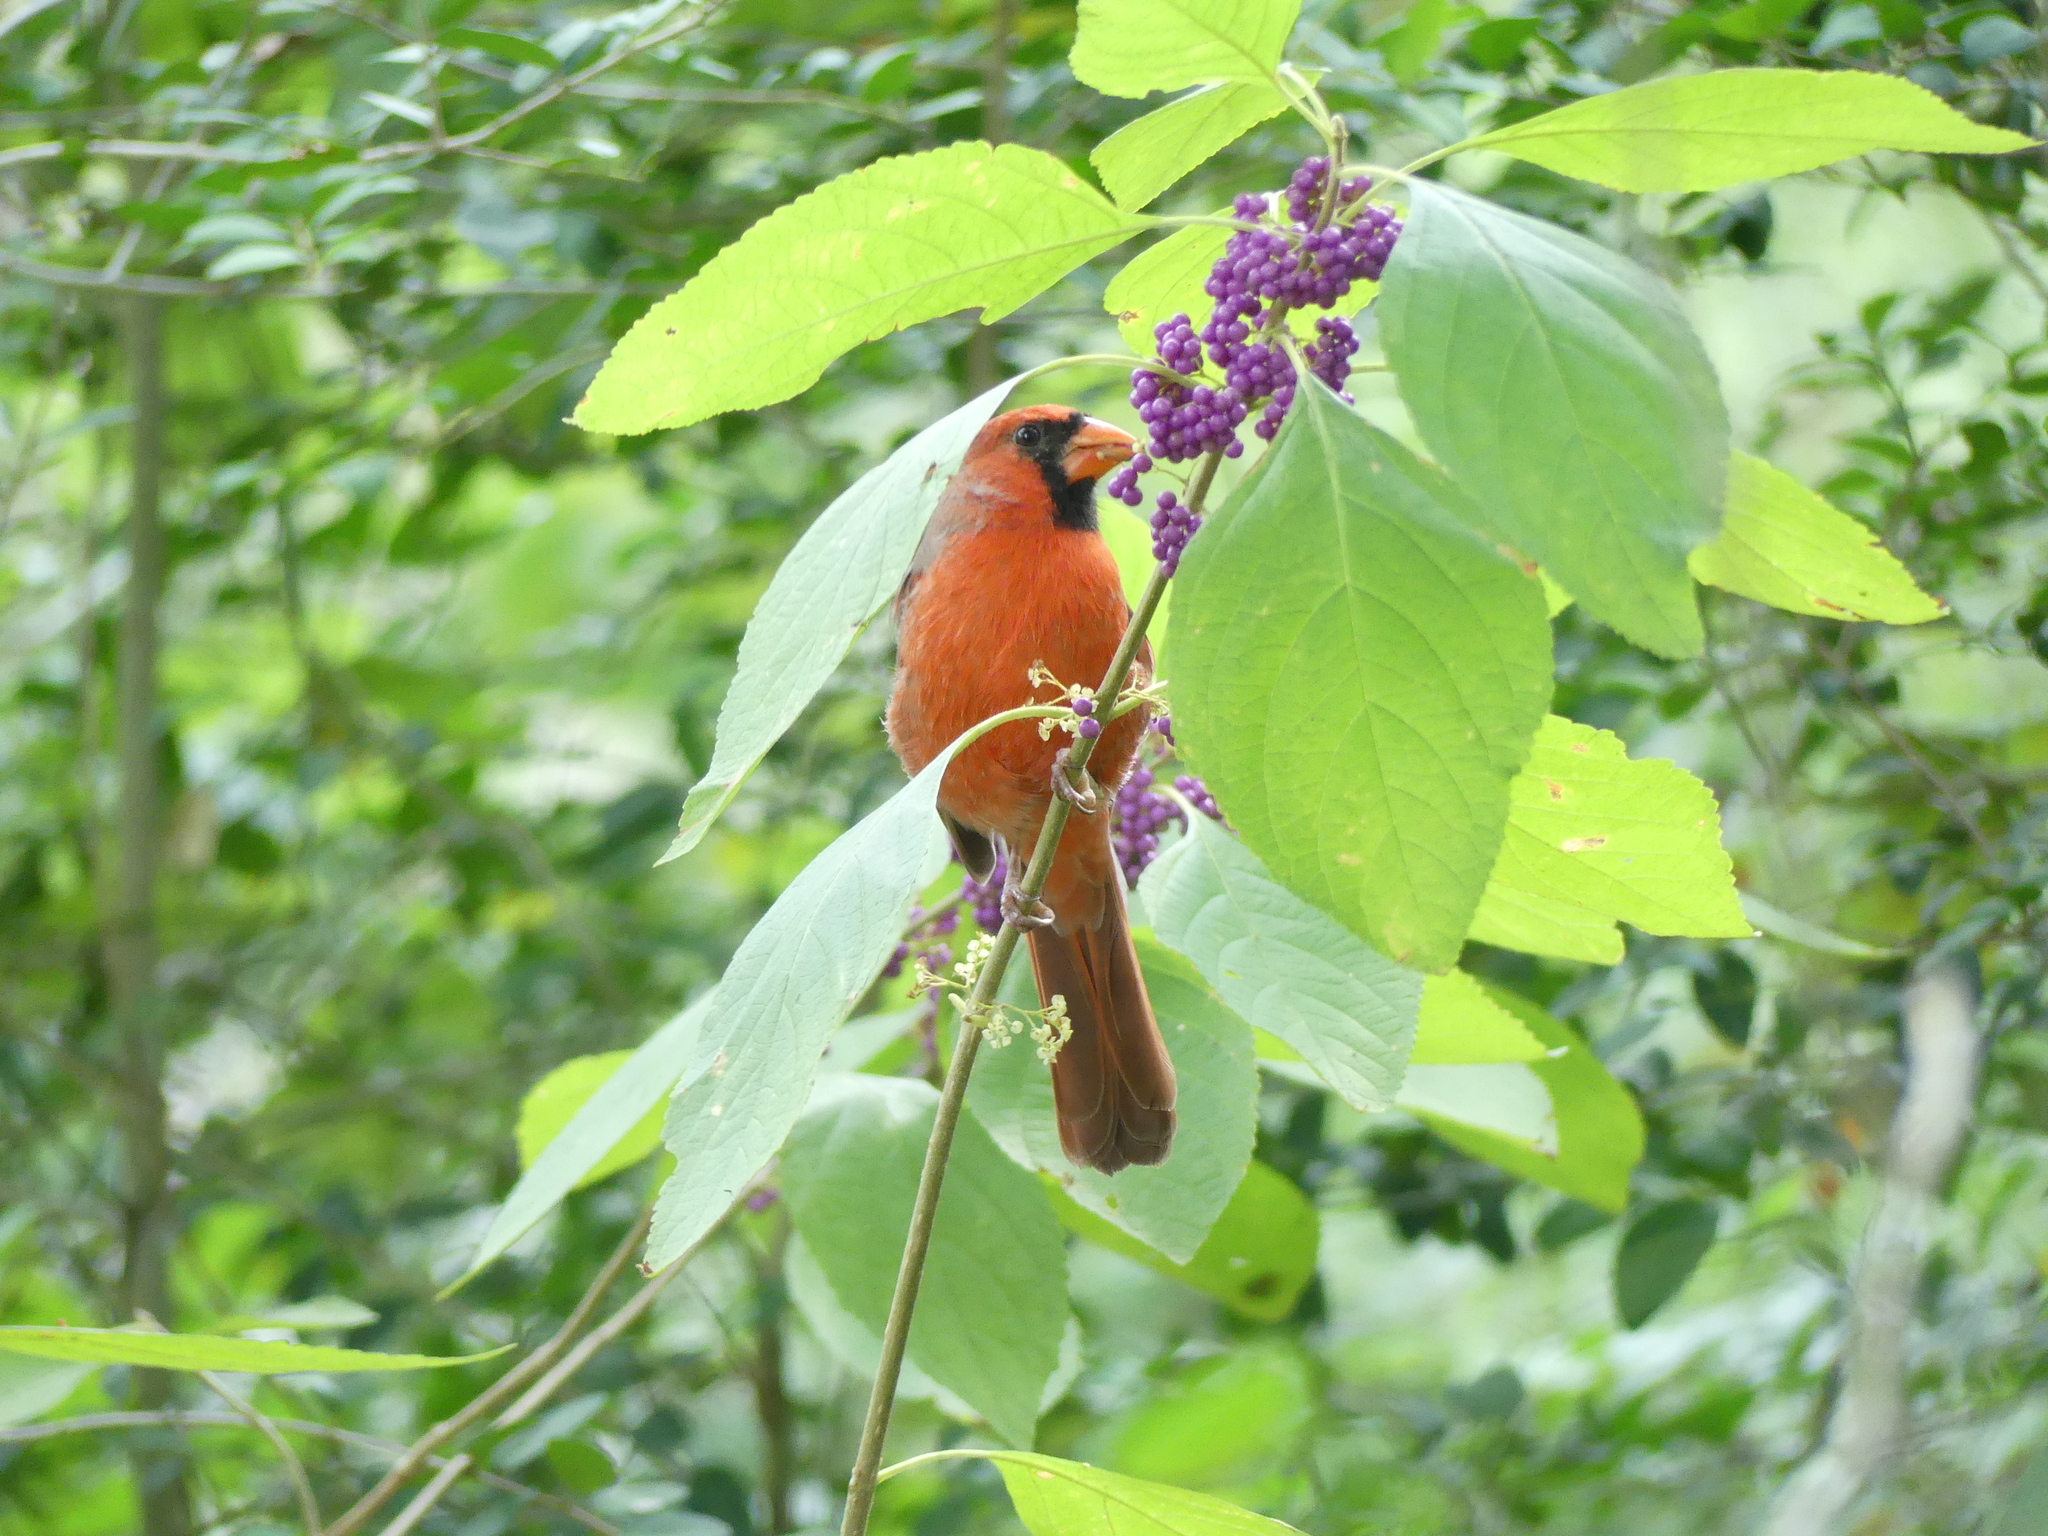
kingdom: Animalia
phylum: Chordata
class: Aves
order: Passeriformes
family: Cardinalidae
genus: Cardinalis
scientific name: Cardinalis cardinalis
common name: Northern cardinal
